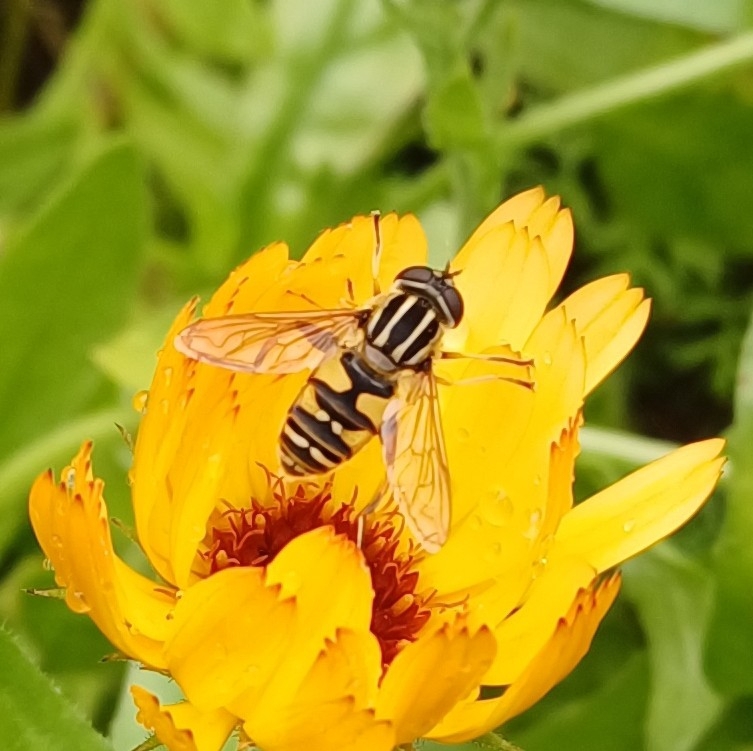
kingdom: Animalia
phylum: Arthropoda
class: Insecta
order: Diptera
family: Syrphidae
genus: Helophilus
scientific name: Helophilus pendulus
